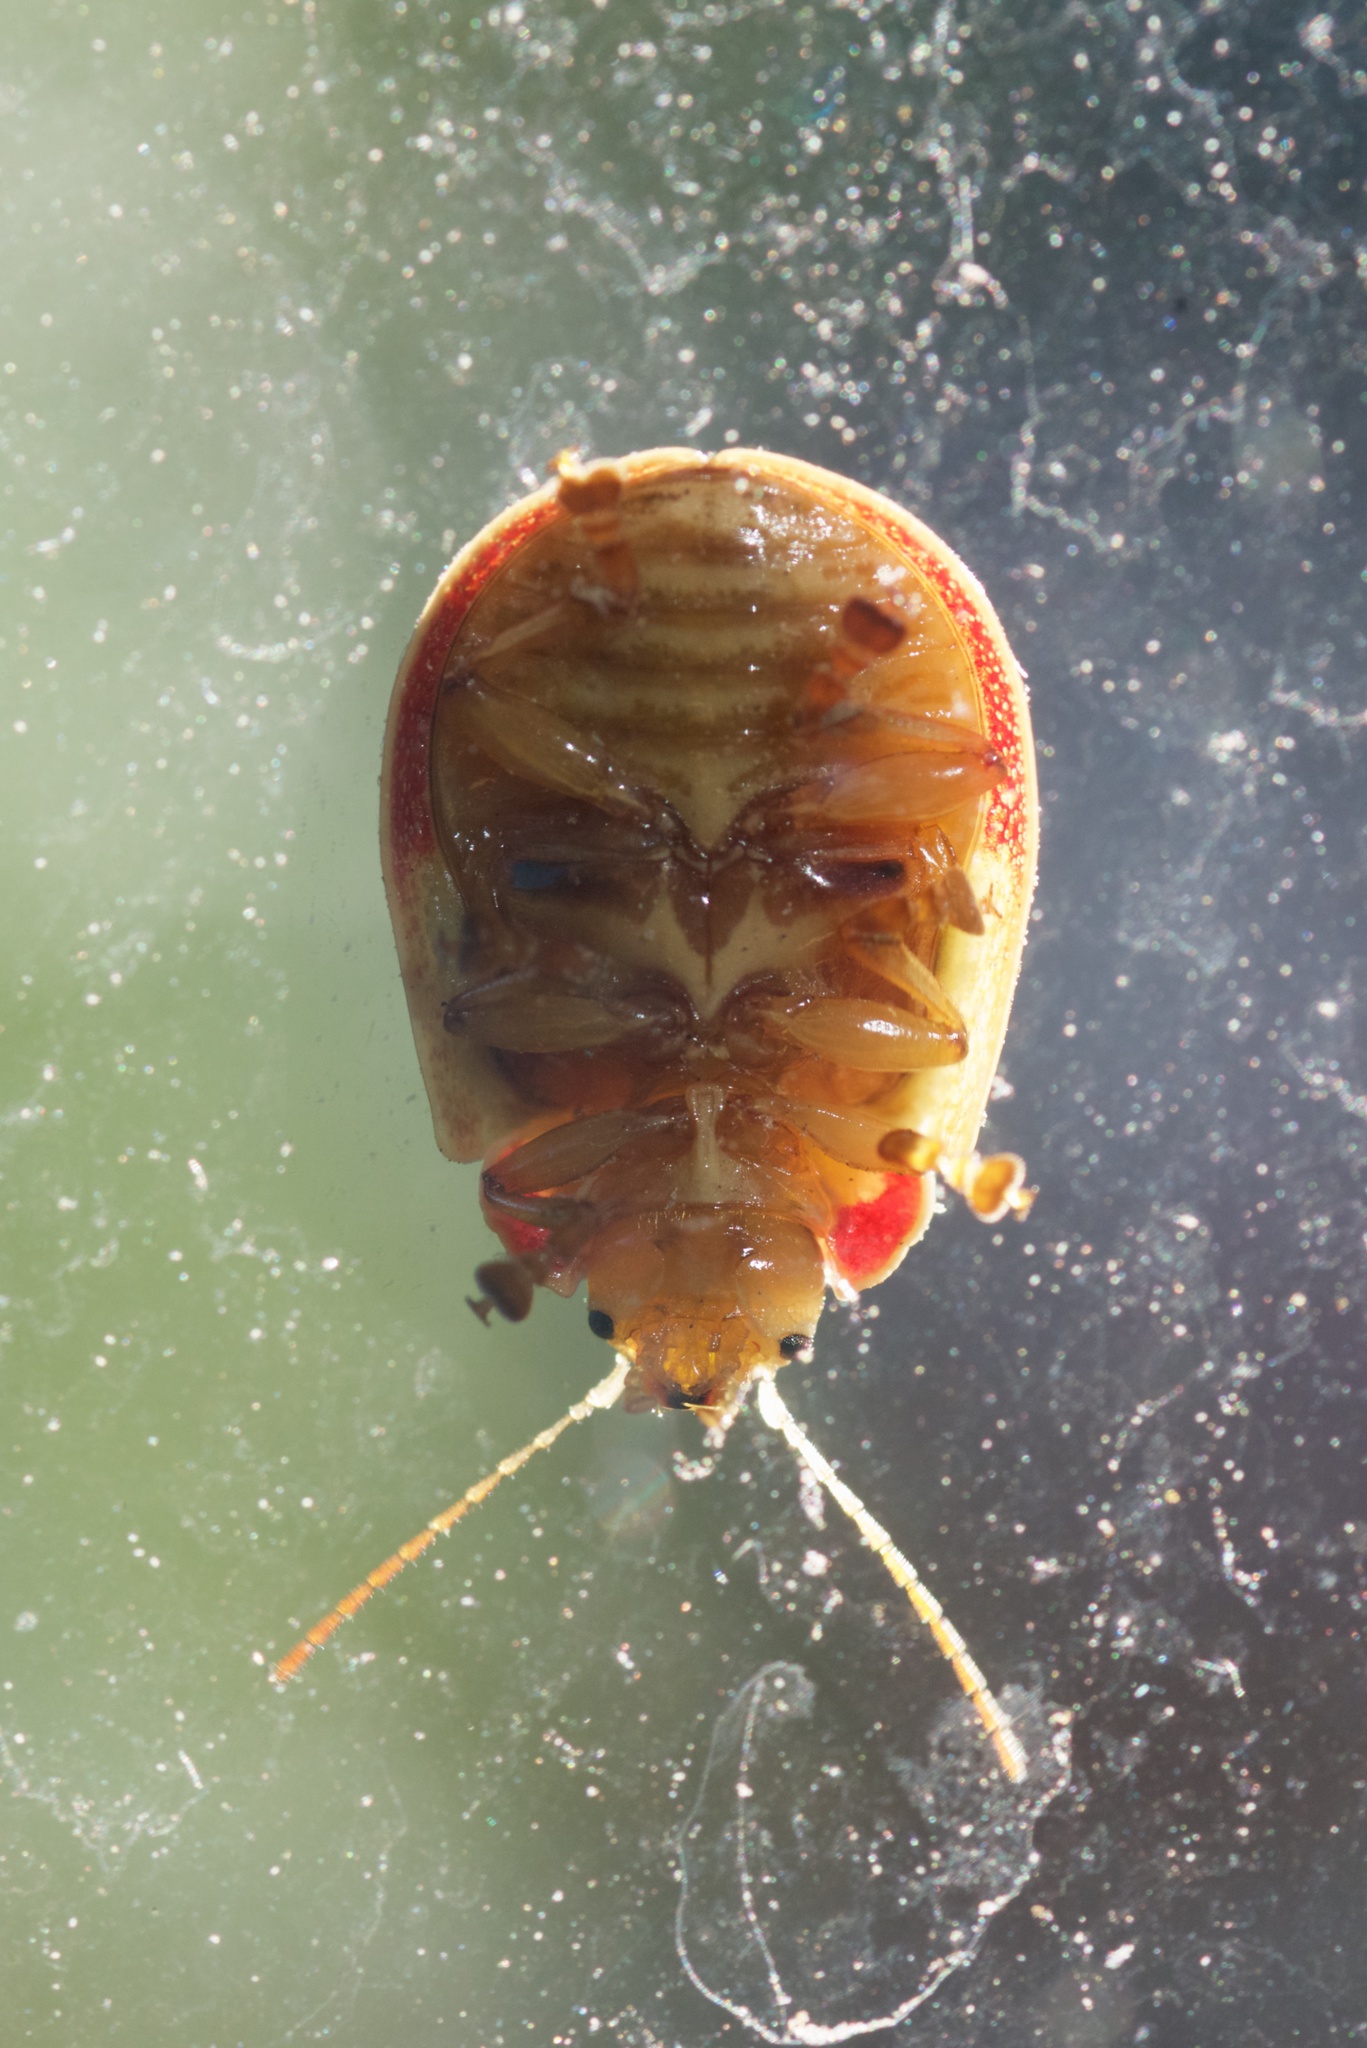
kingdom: Animalia
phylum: Arthropoda
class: Insecta
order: Coleoptera
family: Chrysomelidae
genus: Paropsis
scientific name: Paropsis charybdis
